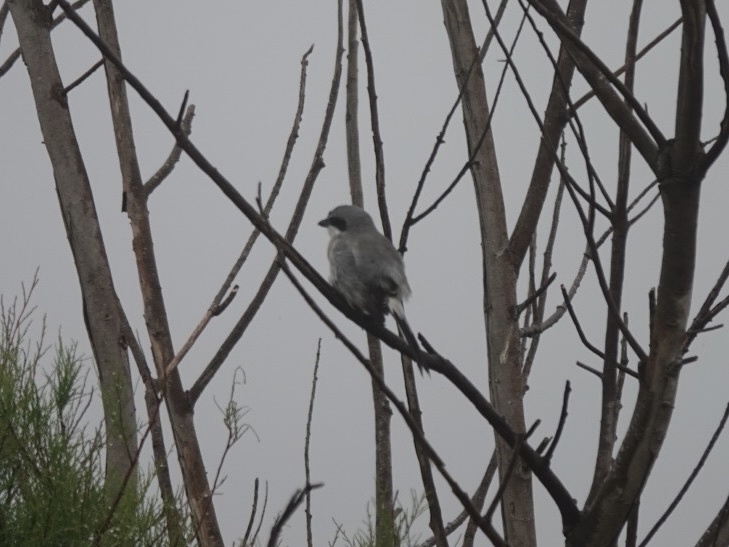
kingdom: Animalia
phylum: Chordata
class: Aves
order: Passeriformes
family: Laniidae
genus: Lanius
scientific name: Lanius ludovicianus
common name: Loggerhead shrike
